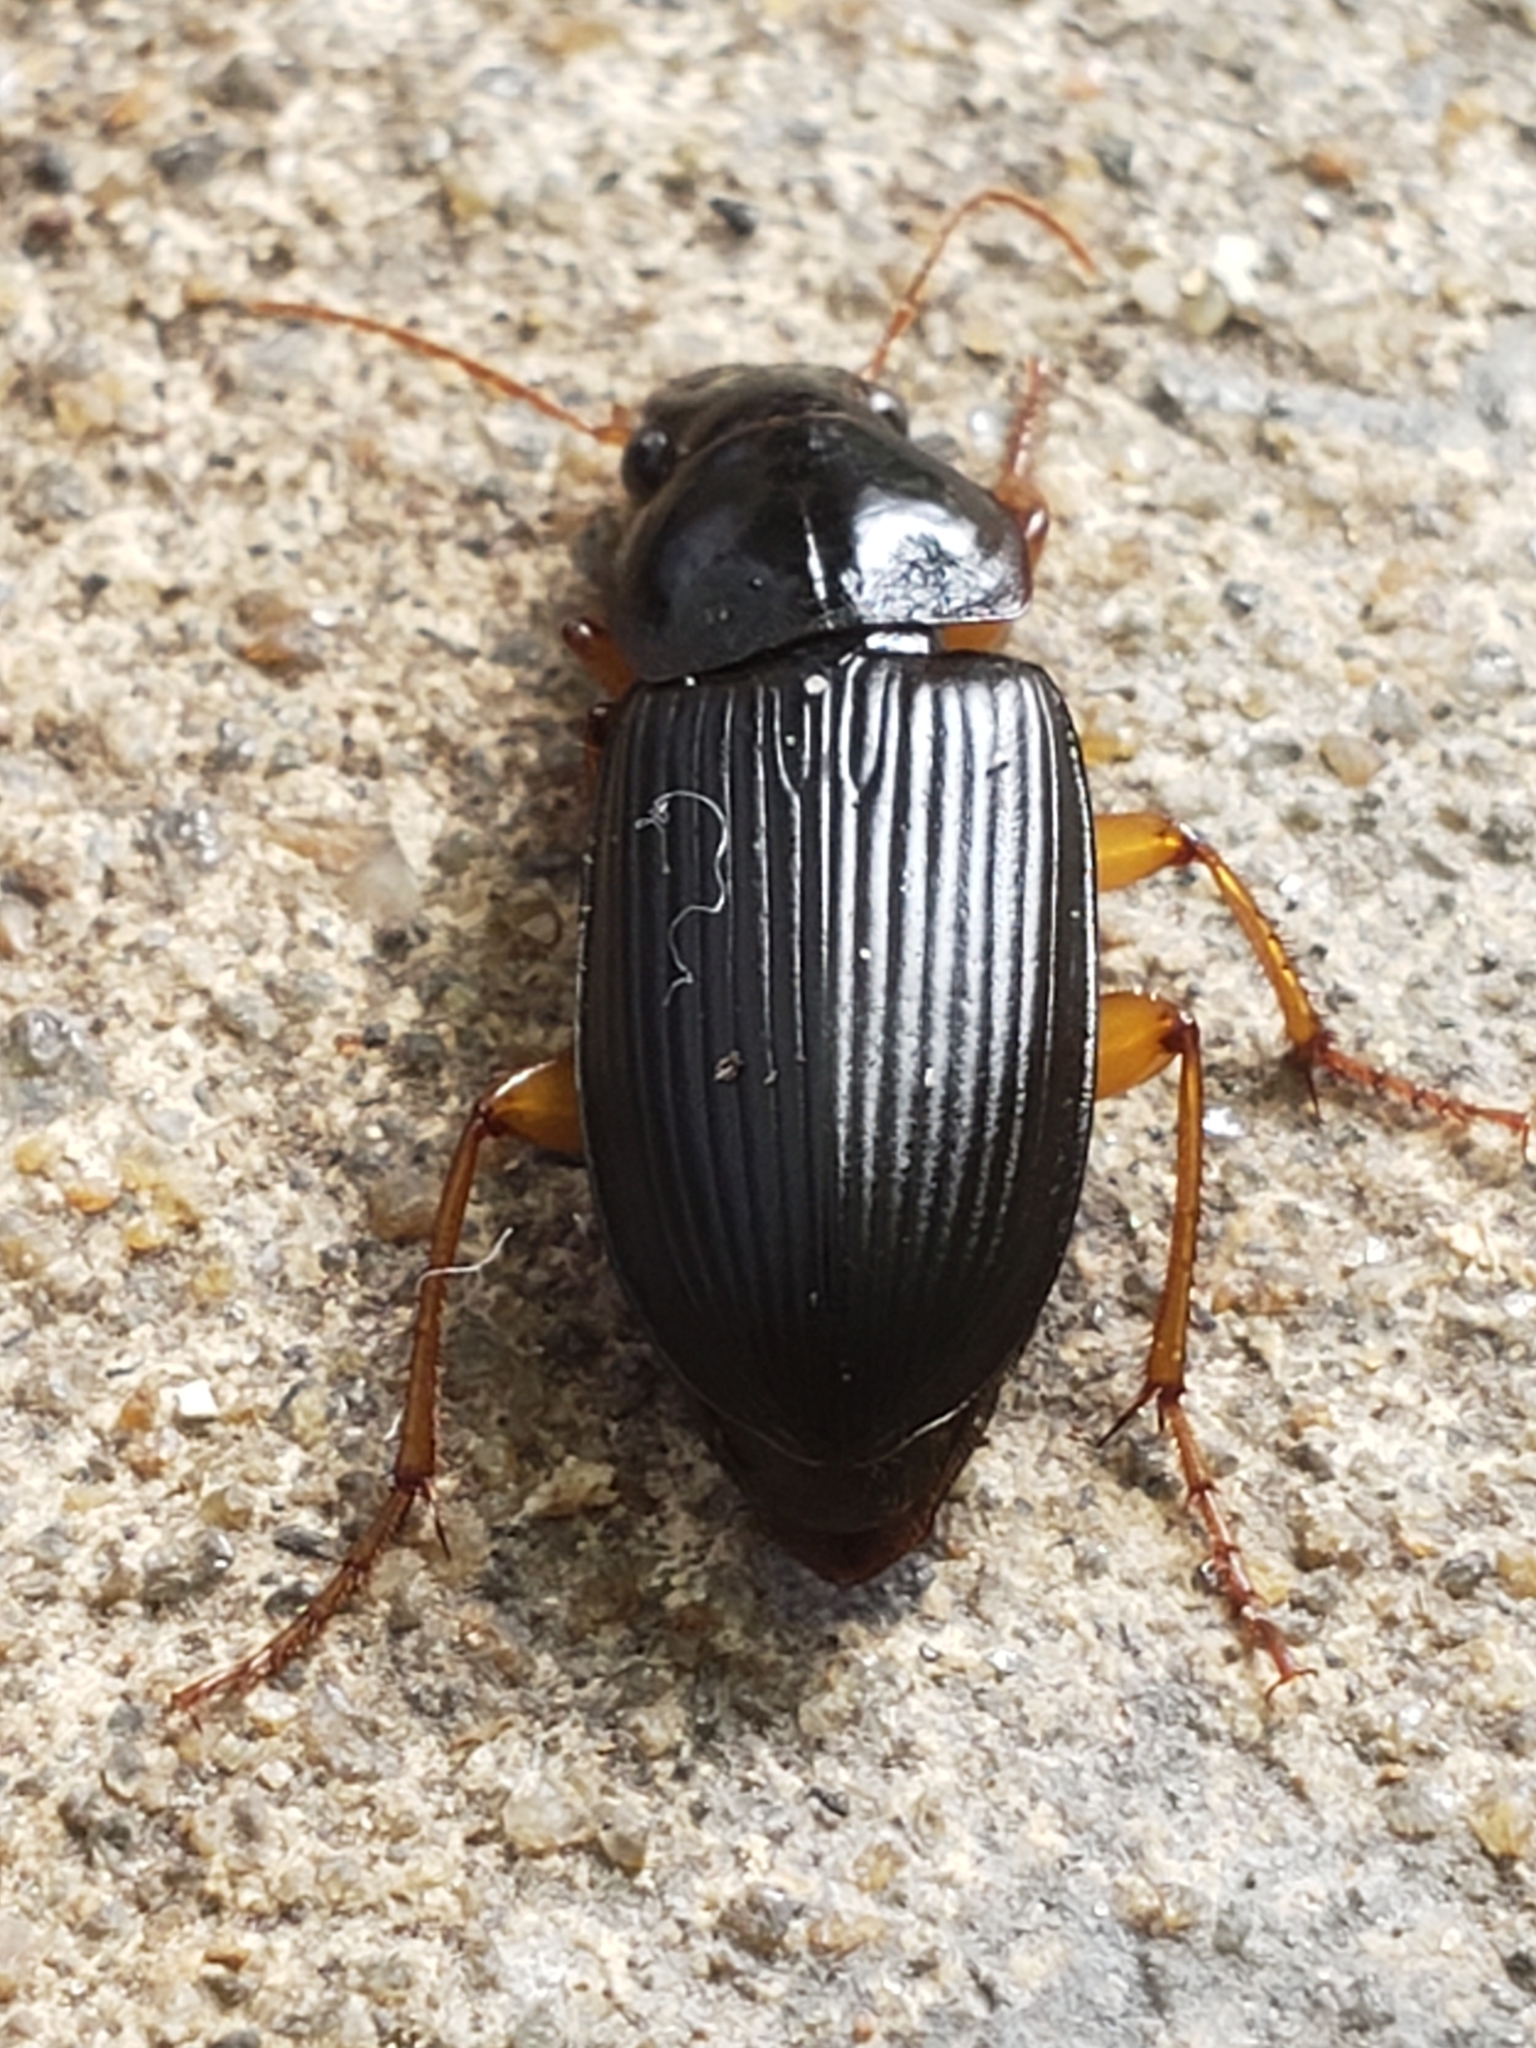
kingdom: Animalia
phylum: Arthropoda
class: Insecta
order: Coleoptera
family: Carabidae
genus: Harpalus
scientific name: Harpalus pensylvanicus
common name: Pennsylvania dingy ground beetle
